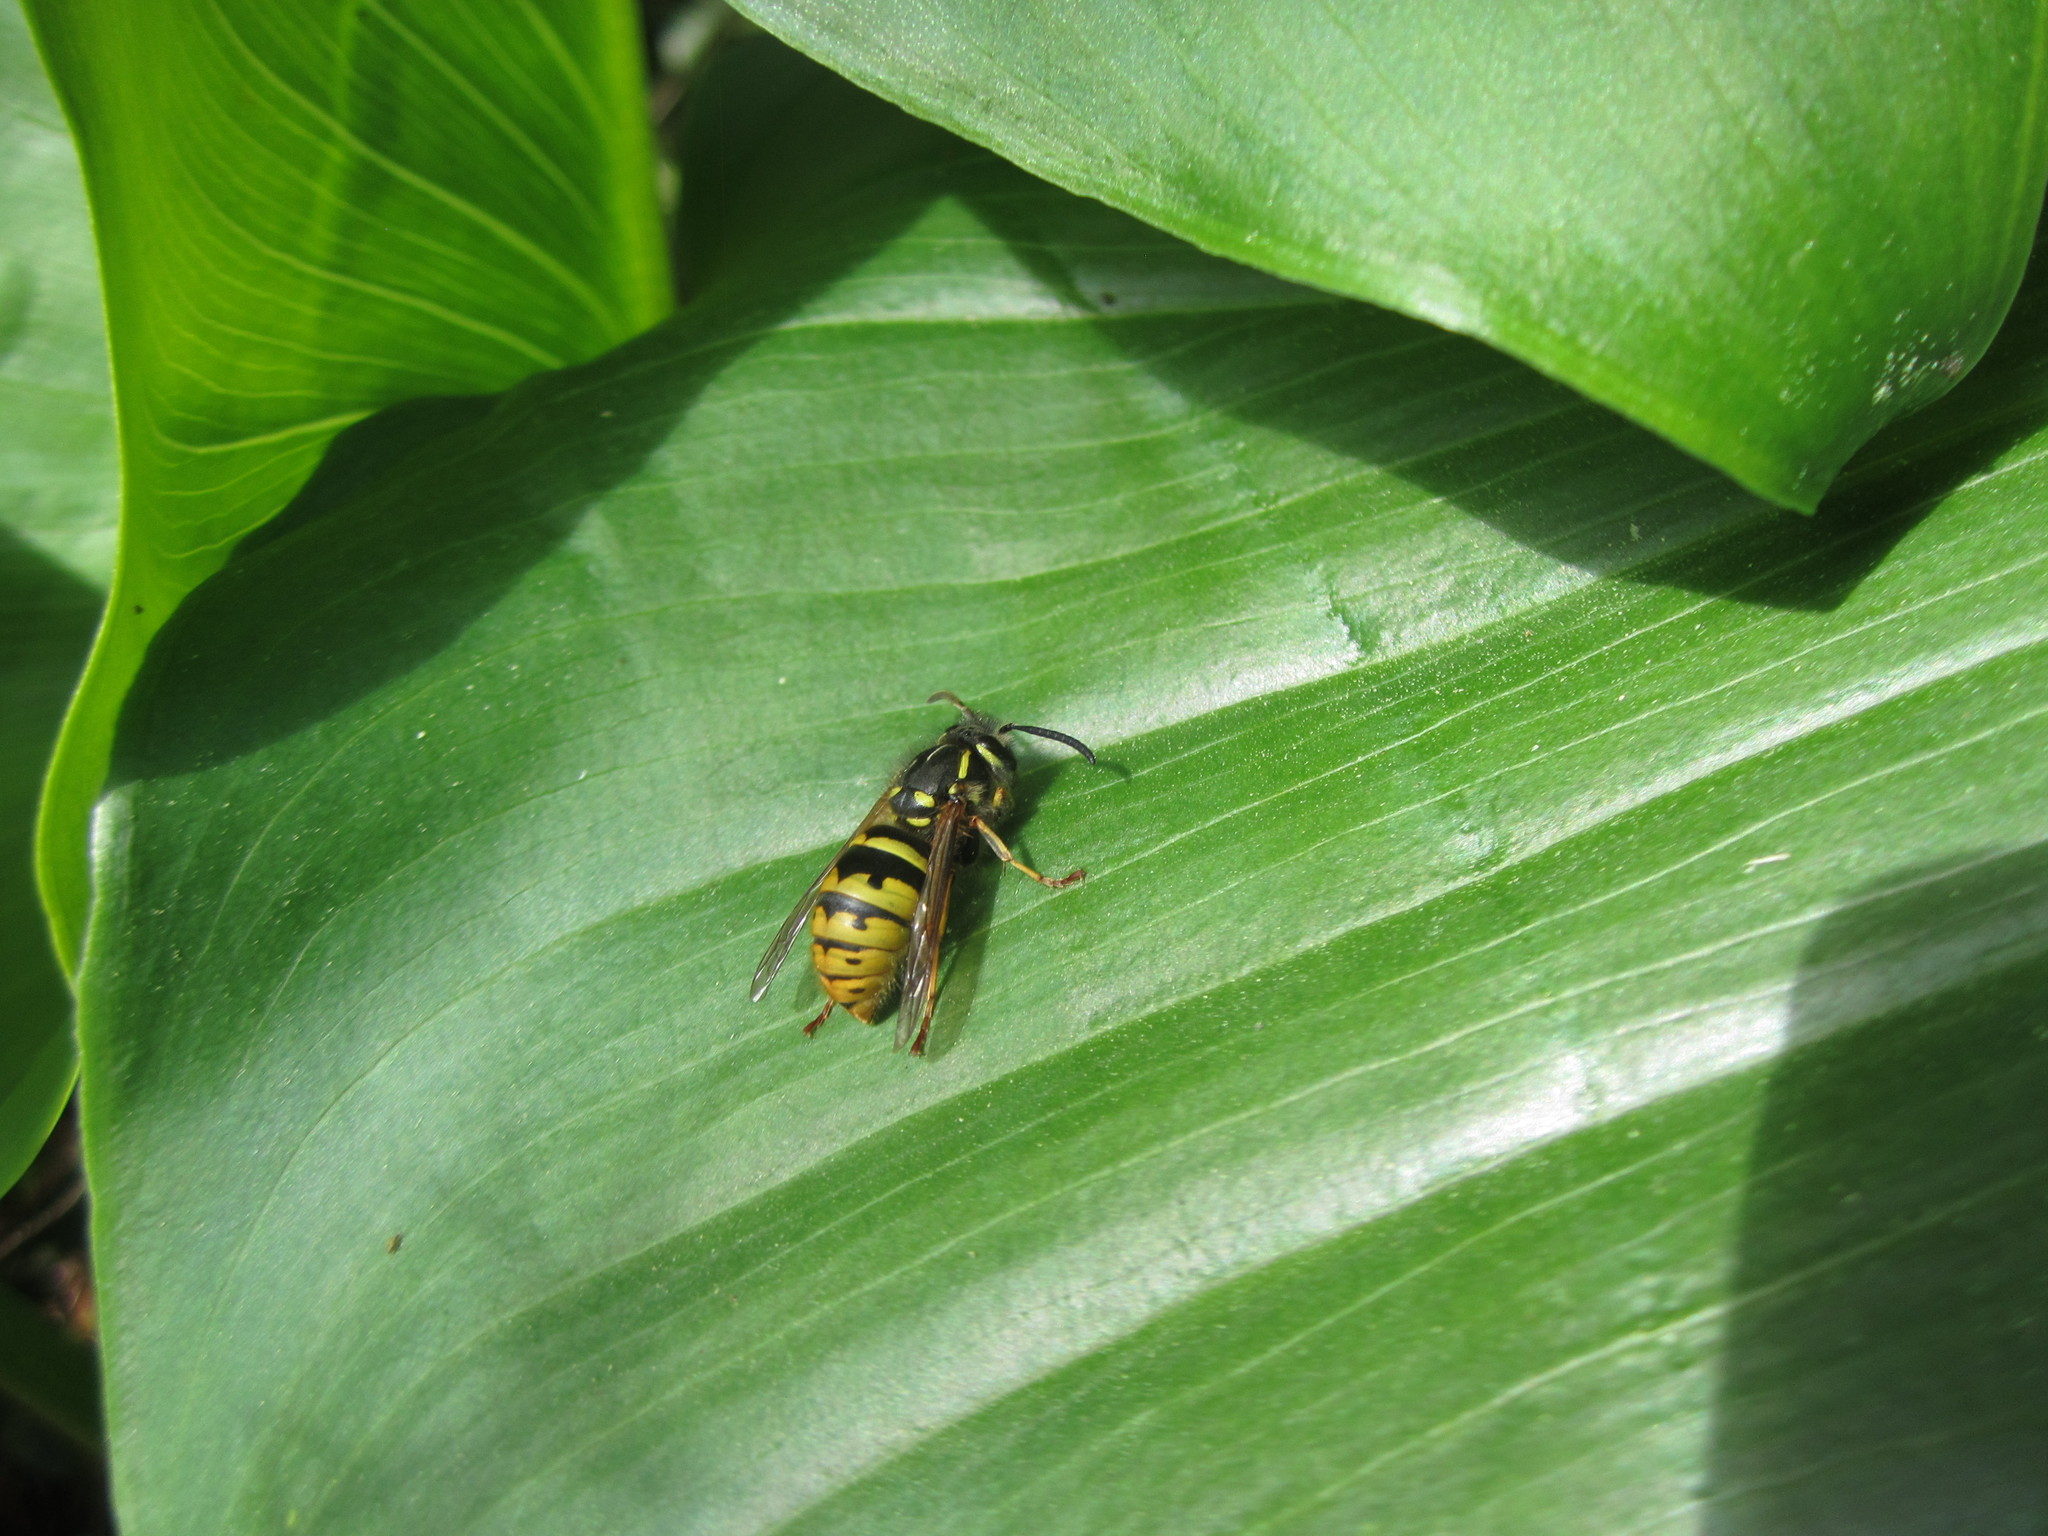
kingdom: Animalia
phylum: Arthropoda
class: Insecta
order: Hymenoptera
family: Vespidae
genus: Vespula
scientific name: Vespula vulgaris
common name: Common wasp
